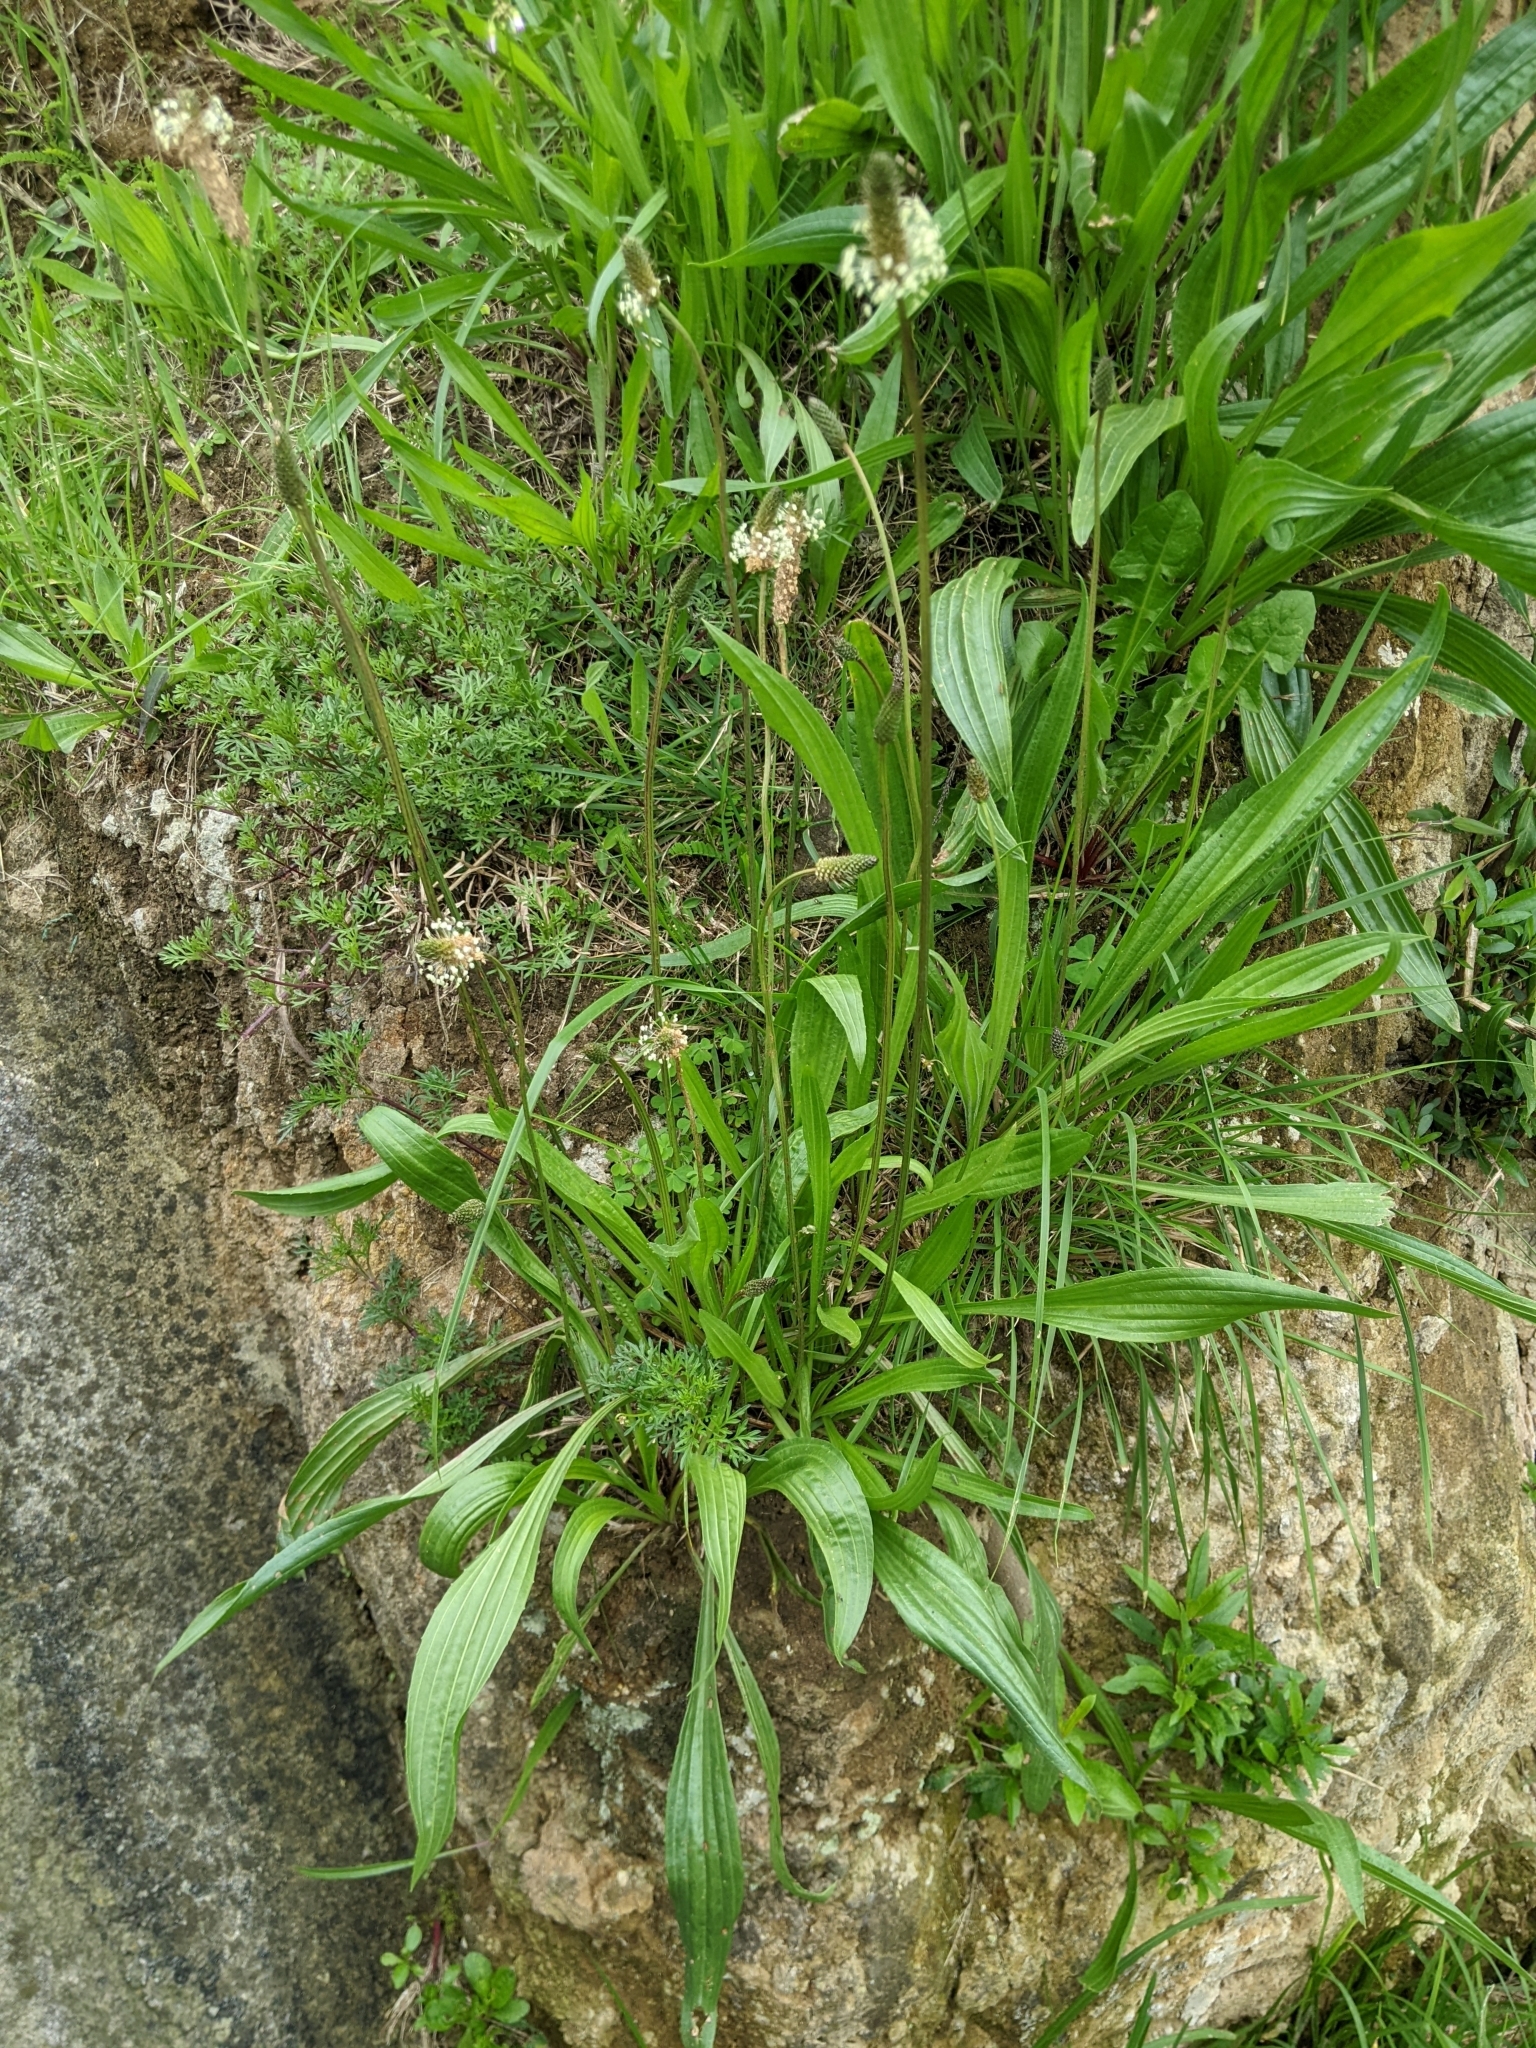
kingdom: Plantae
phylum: Tracheophyta
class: Magnoliopsida
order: Lamiales
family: Plantaginaceae
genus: Plantago
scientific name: Plantago lanceolata
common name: Ribwort plantain
